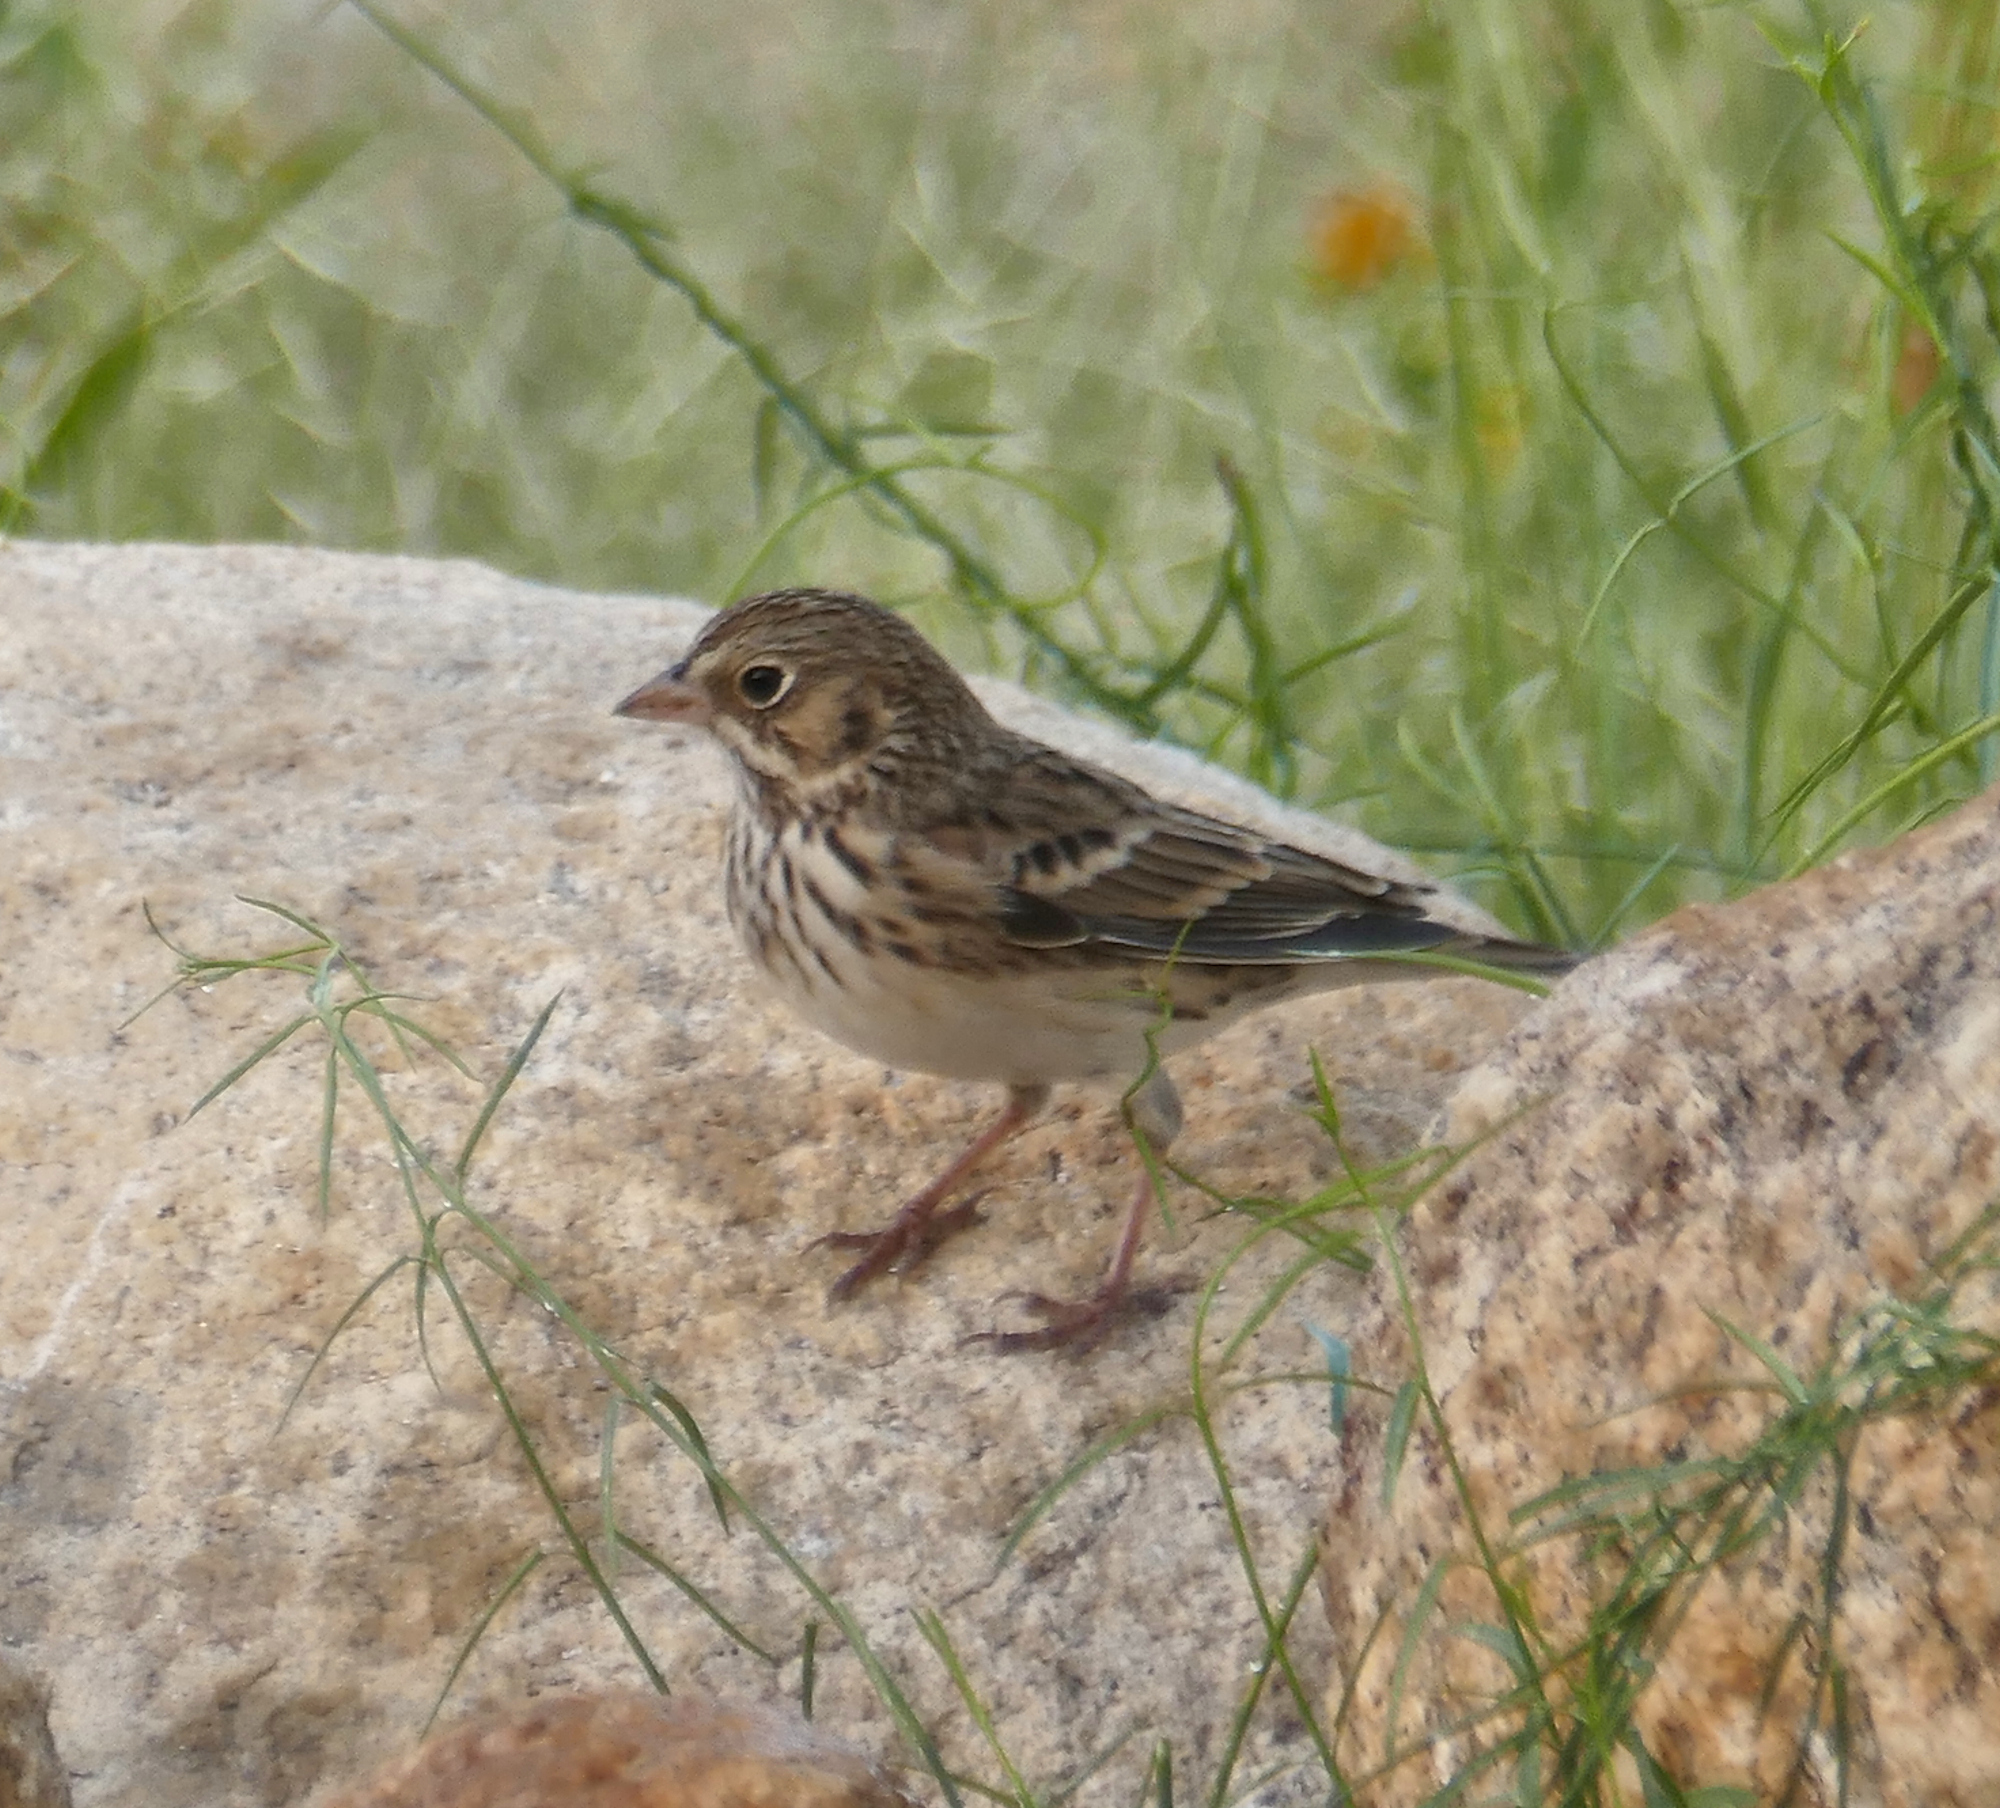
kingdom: Animalia
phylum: Chordata
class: Aves
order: Passeriformes
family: Passerellidae
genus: Pooecetes
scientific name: Pooecetes gramineus
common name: Vesper sparrow
